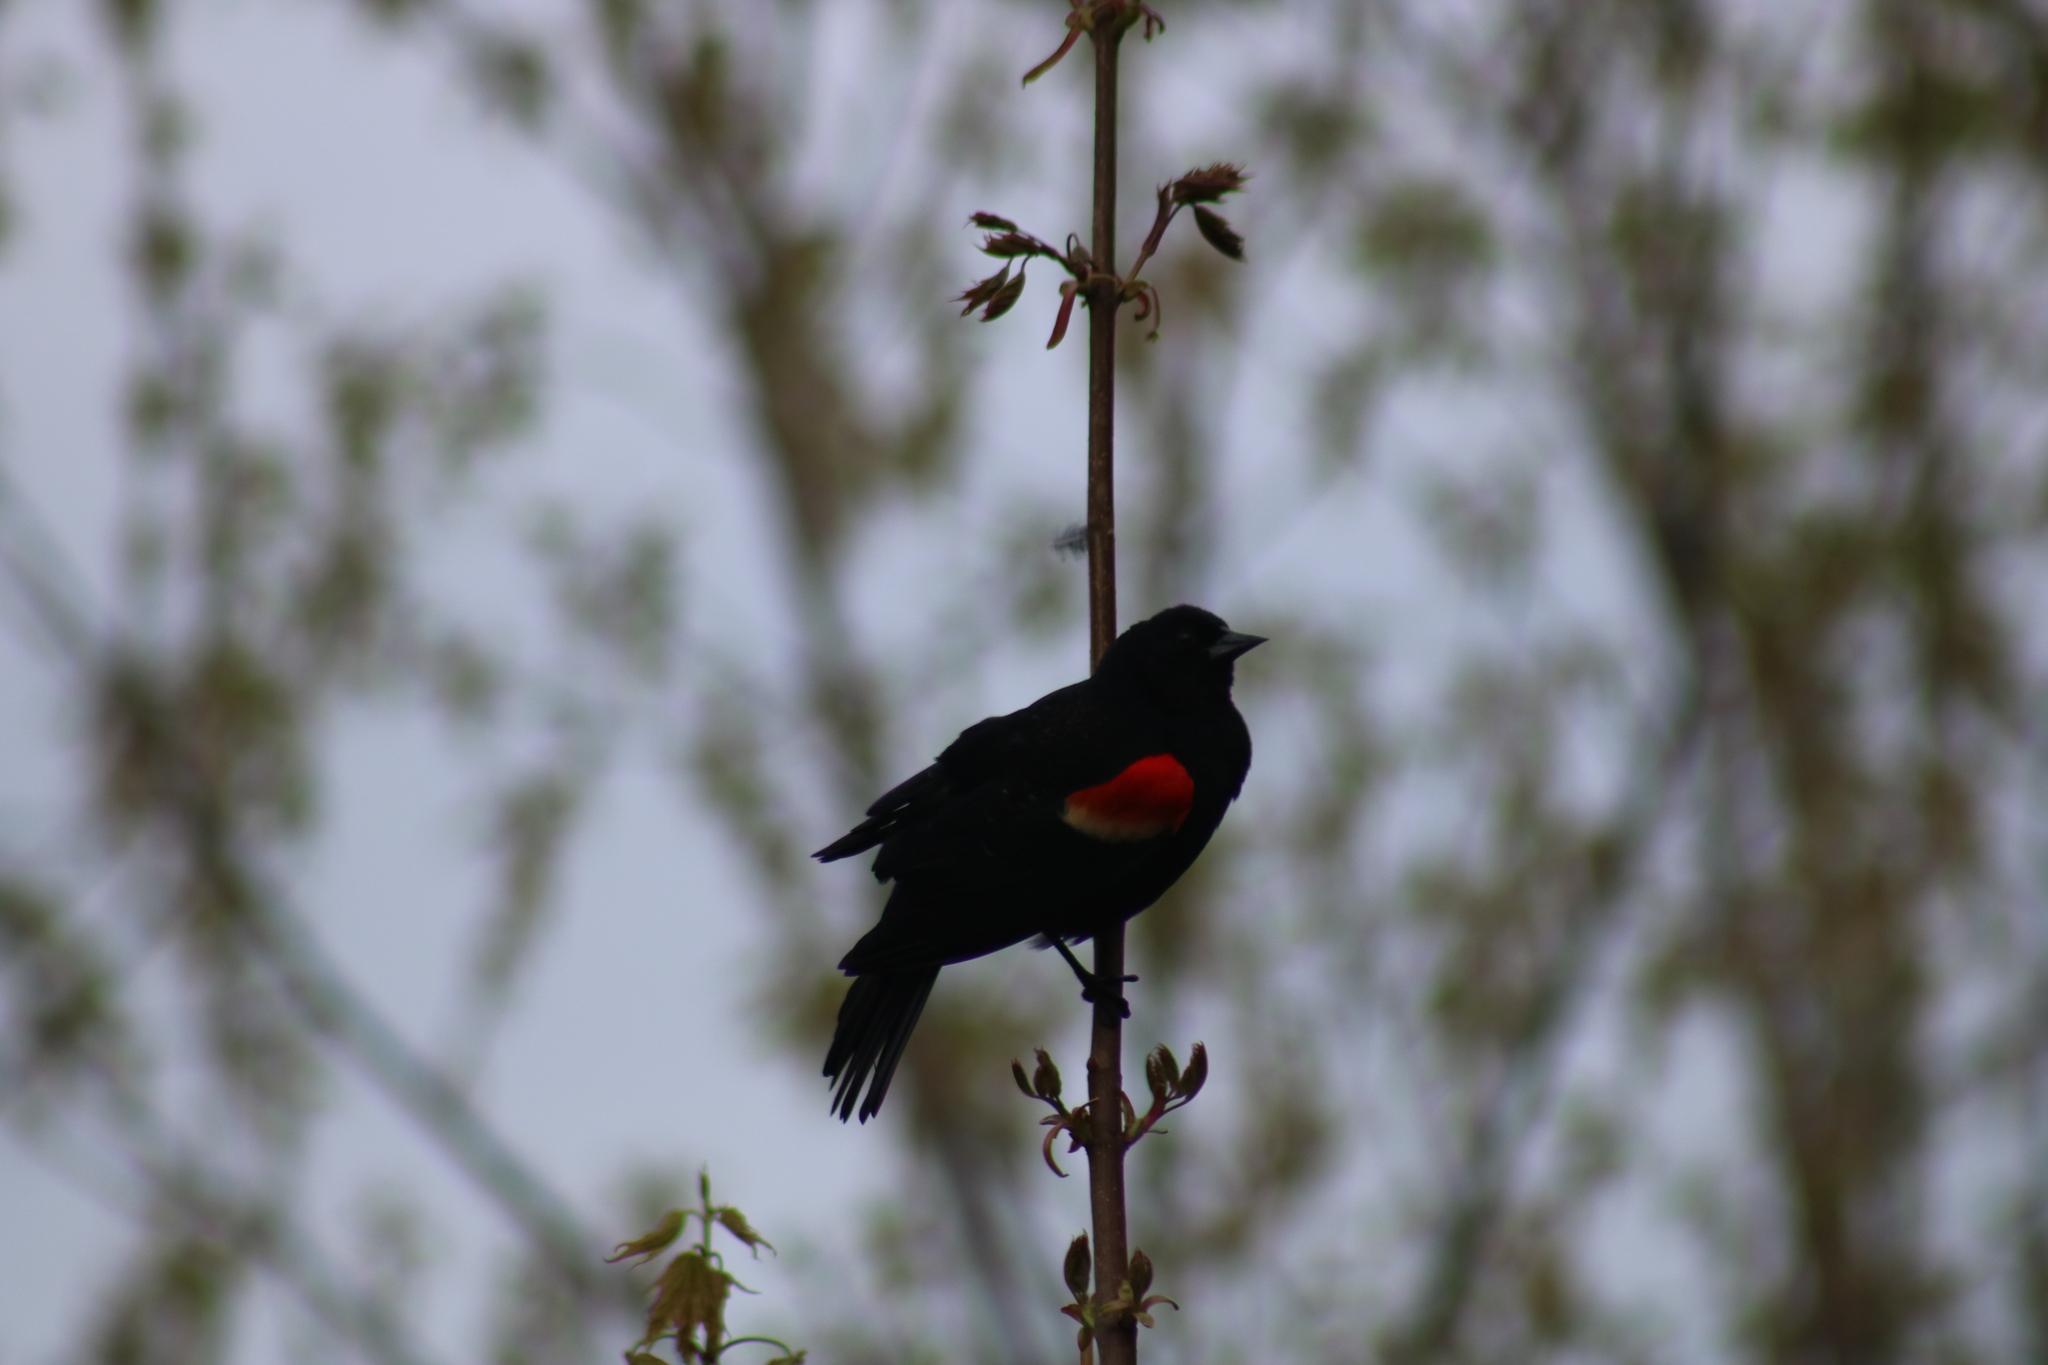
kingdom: Animalia
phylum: Chordata
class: Aves
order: Passeriformes
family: Icteridae
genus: Agelaius
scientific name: Agelaius phoeniceus
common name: Red-winged blackbird
